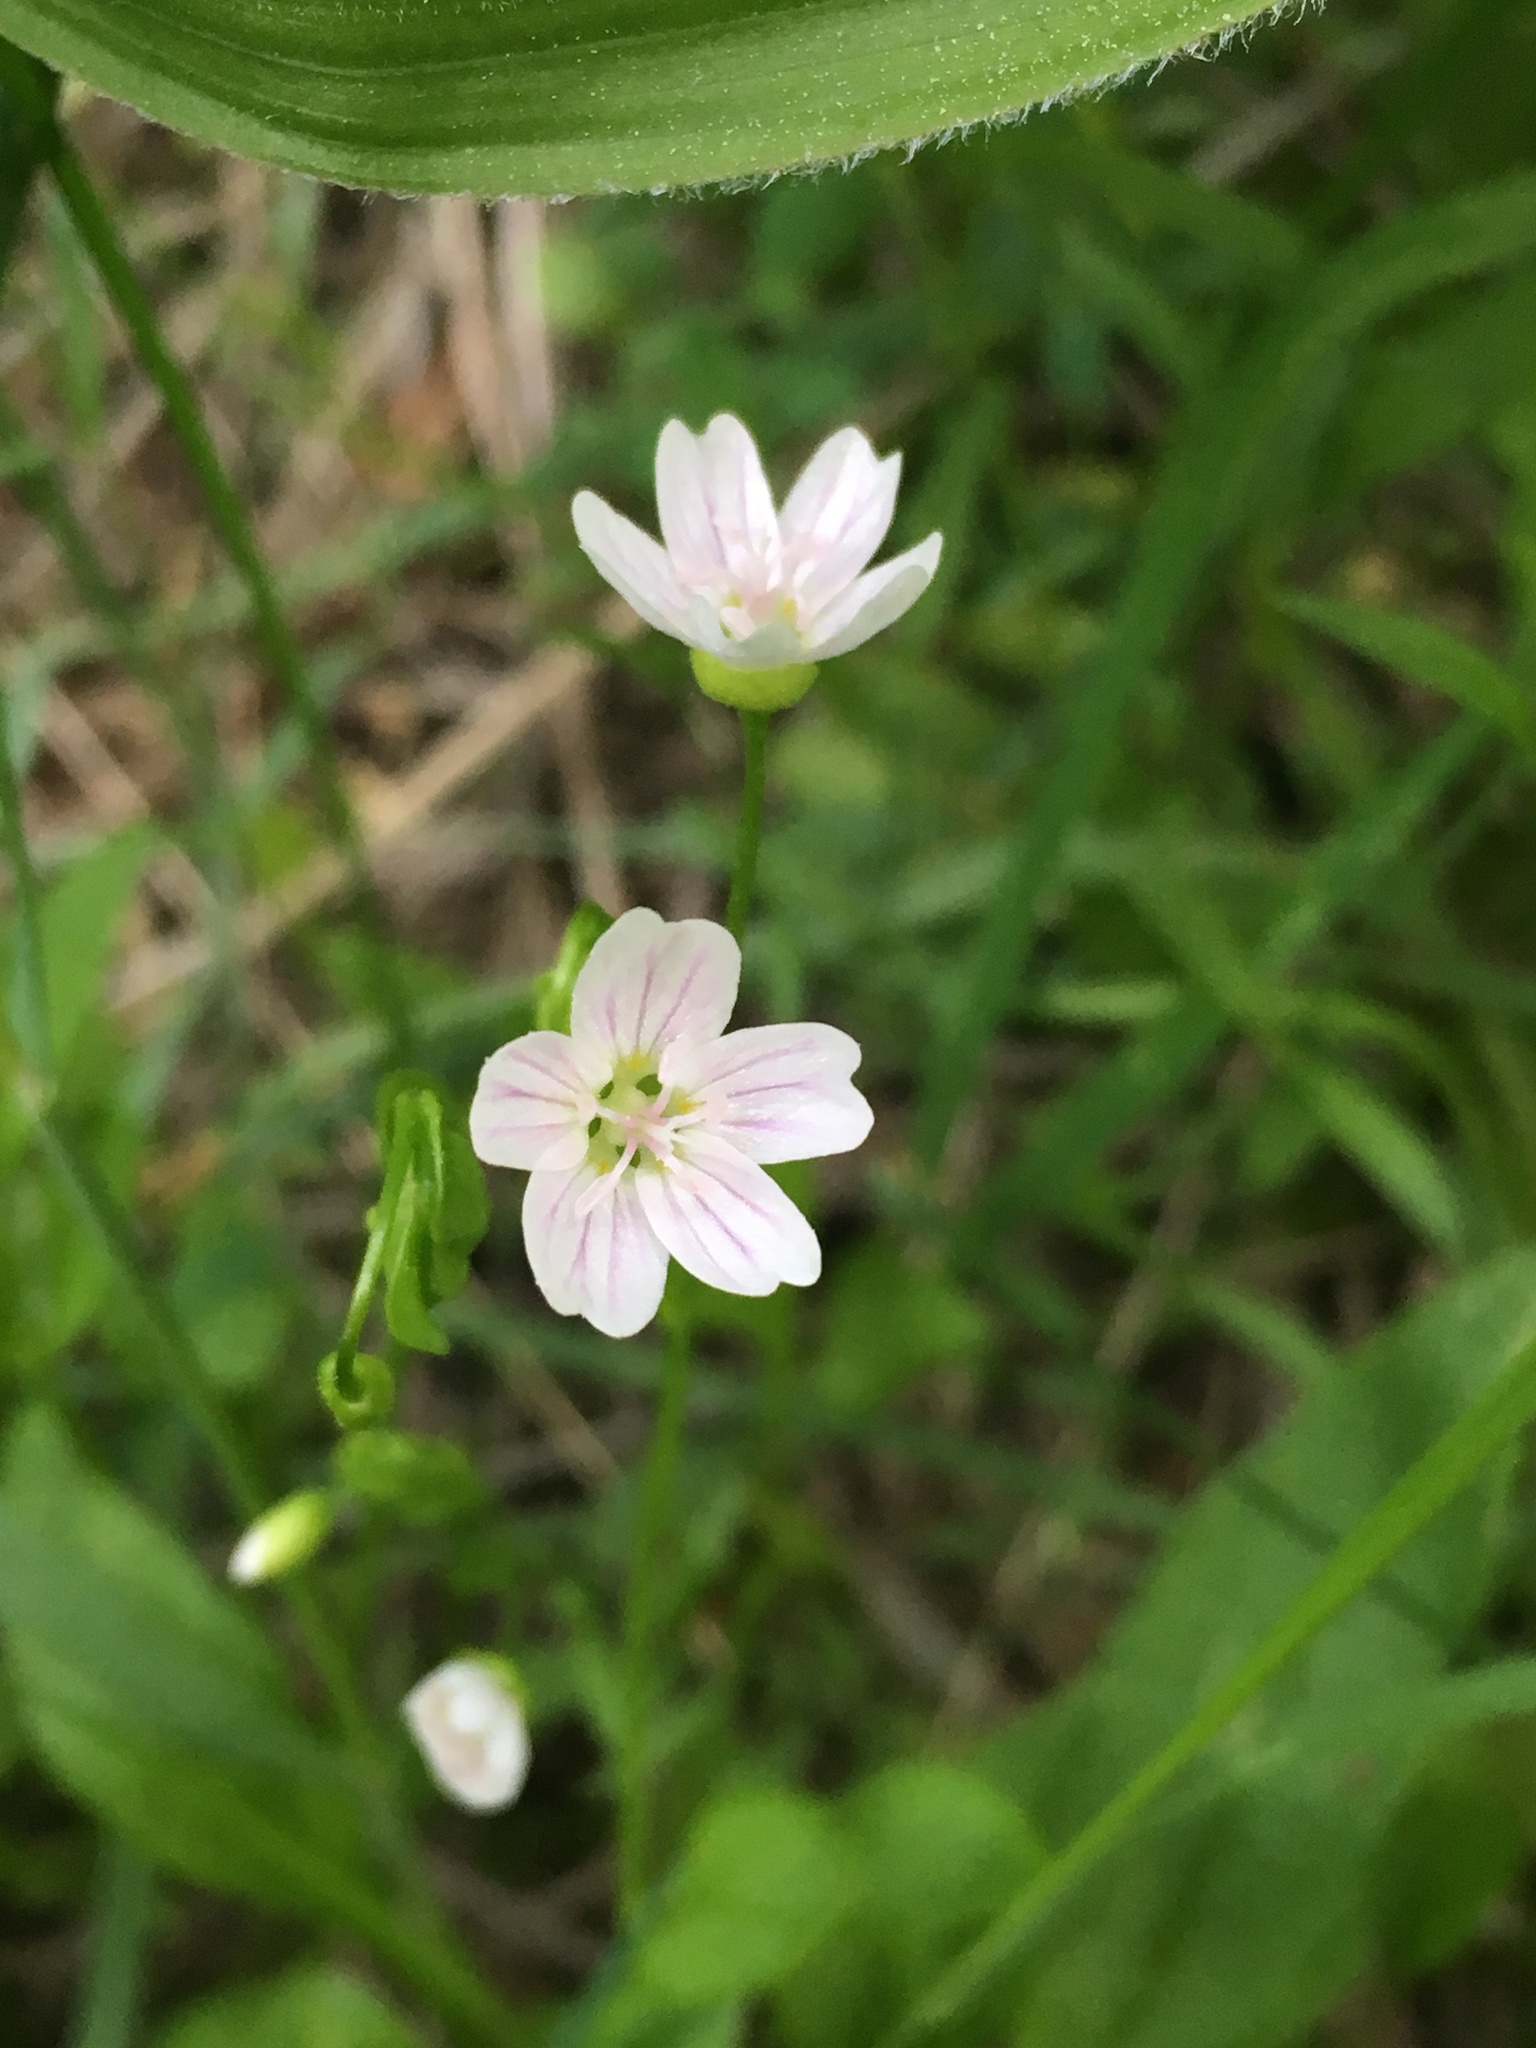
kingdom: Plantae
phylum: Tracheophyta
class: Magnoliopsida
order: Caryophyllales
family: Montiaceae
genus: Claytonia
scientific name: Claytonia palustris
